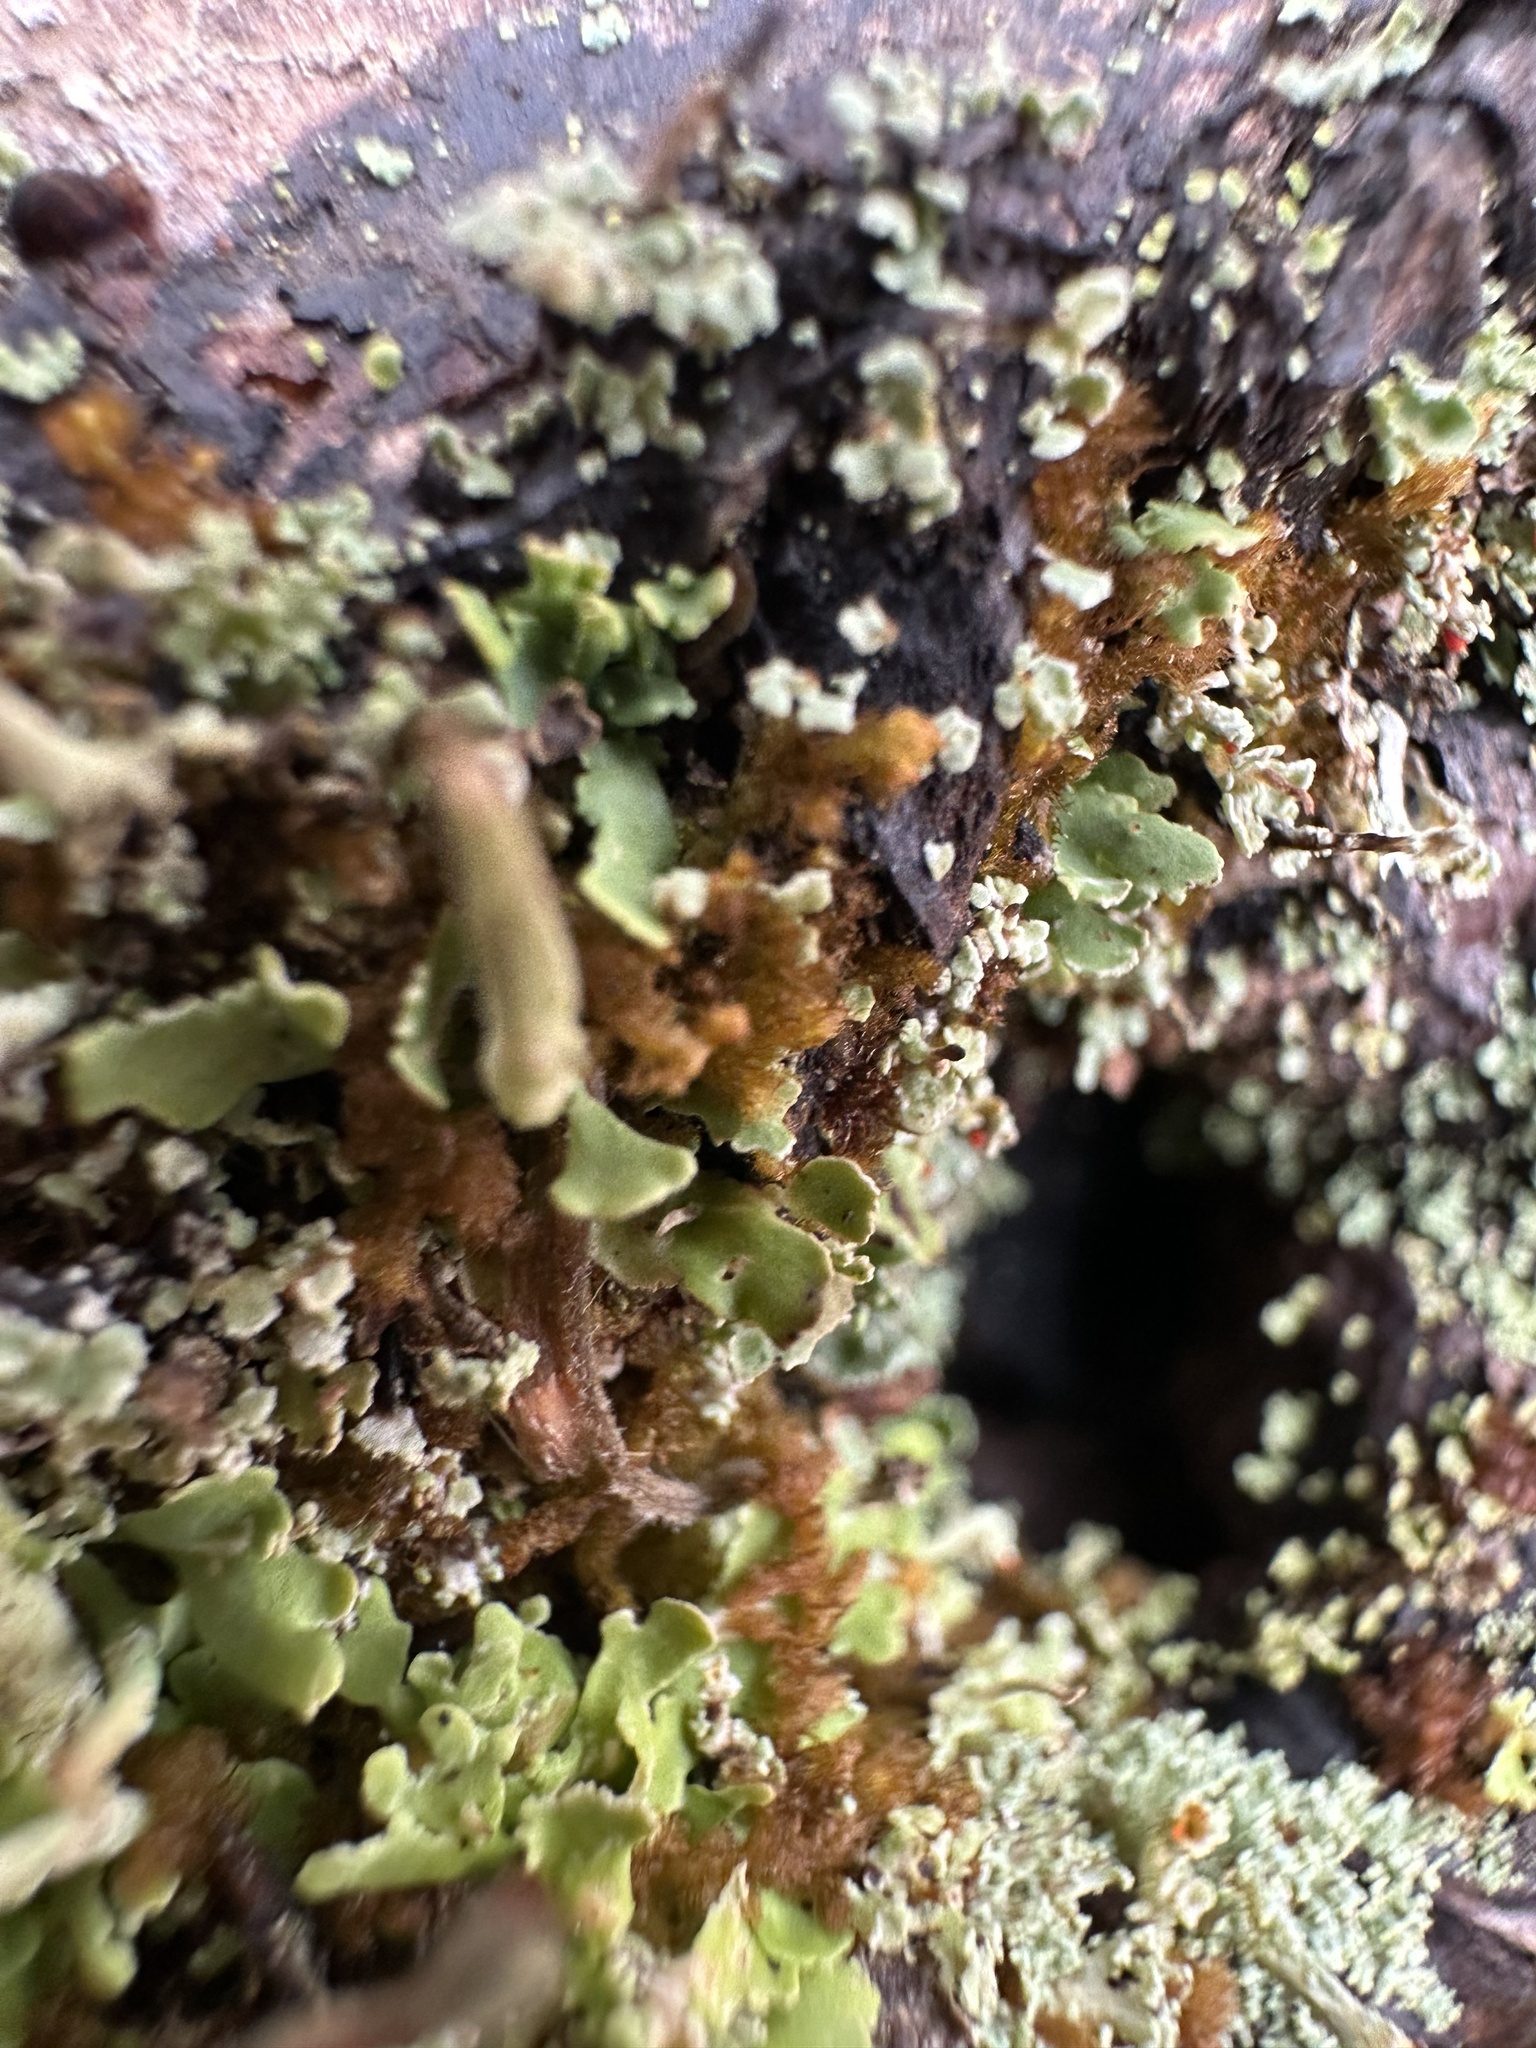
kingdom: Plantae
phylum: Marchantiophyta
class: Jungermanniopsida
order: Ptilidiales
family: Ptilidiaceae
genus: Ptilidium
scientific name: Ptilidium pulcherrimum
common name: Tree fringewort
